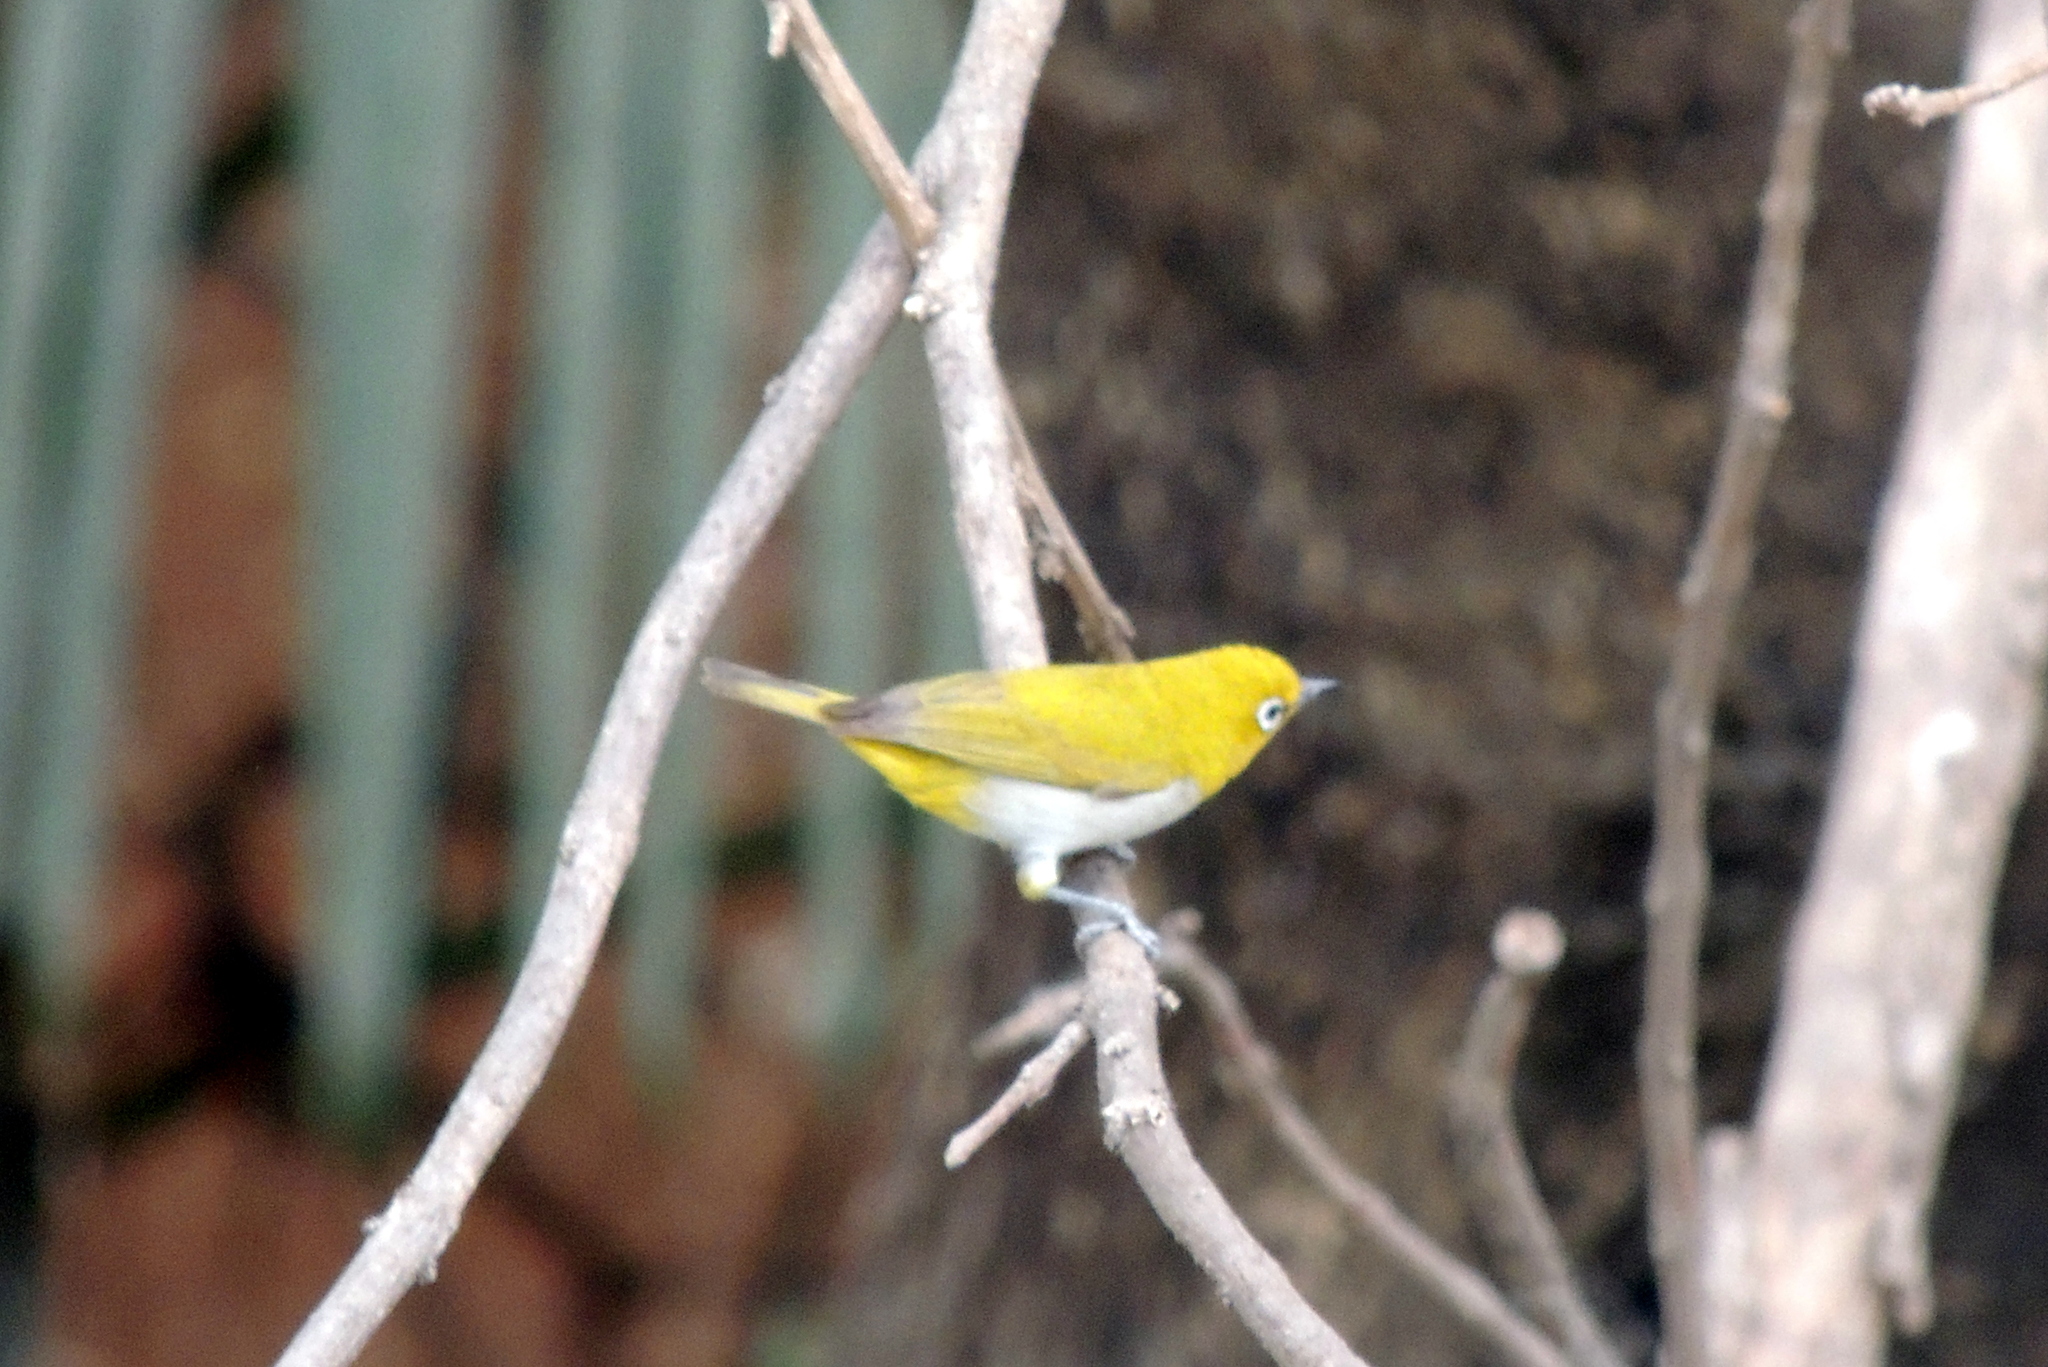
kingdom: Animalia
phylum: Chordata
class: Aves
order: Passeriformes
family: Zosteropidae
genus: Zosterops
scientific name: Zosterops palpebrosus
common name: Oriental white-eye
